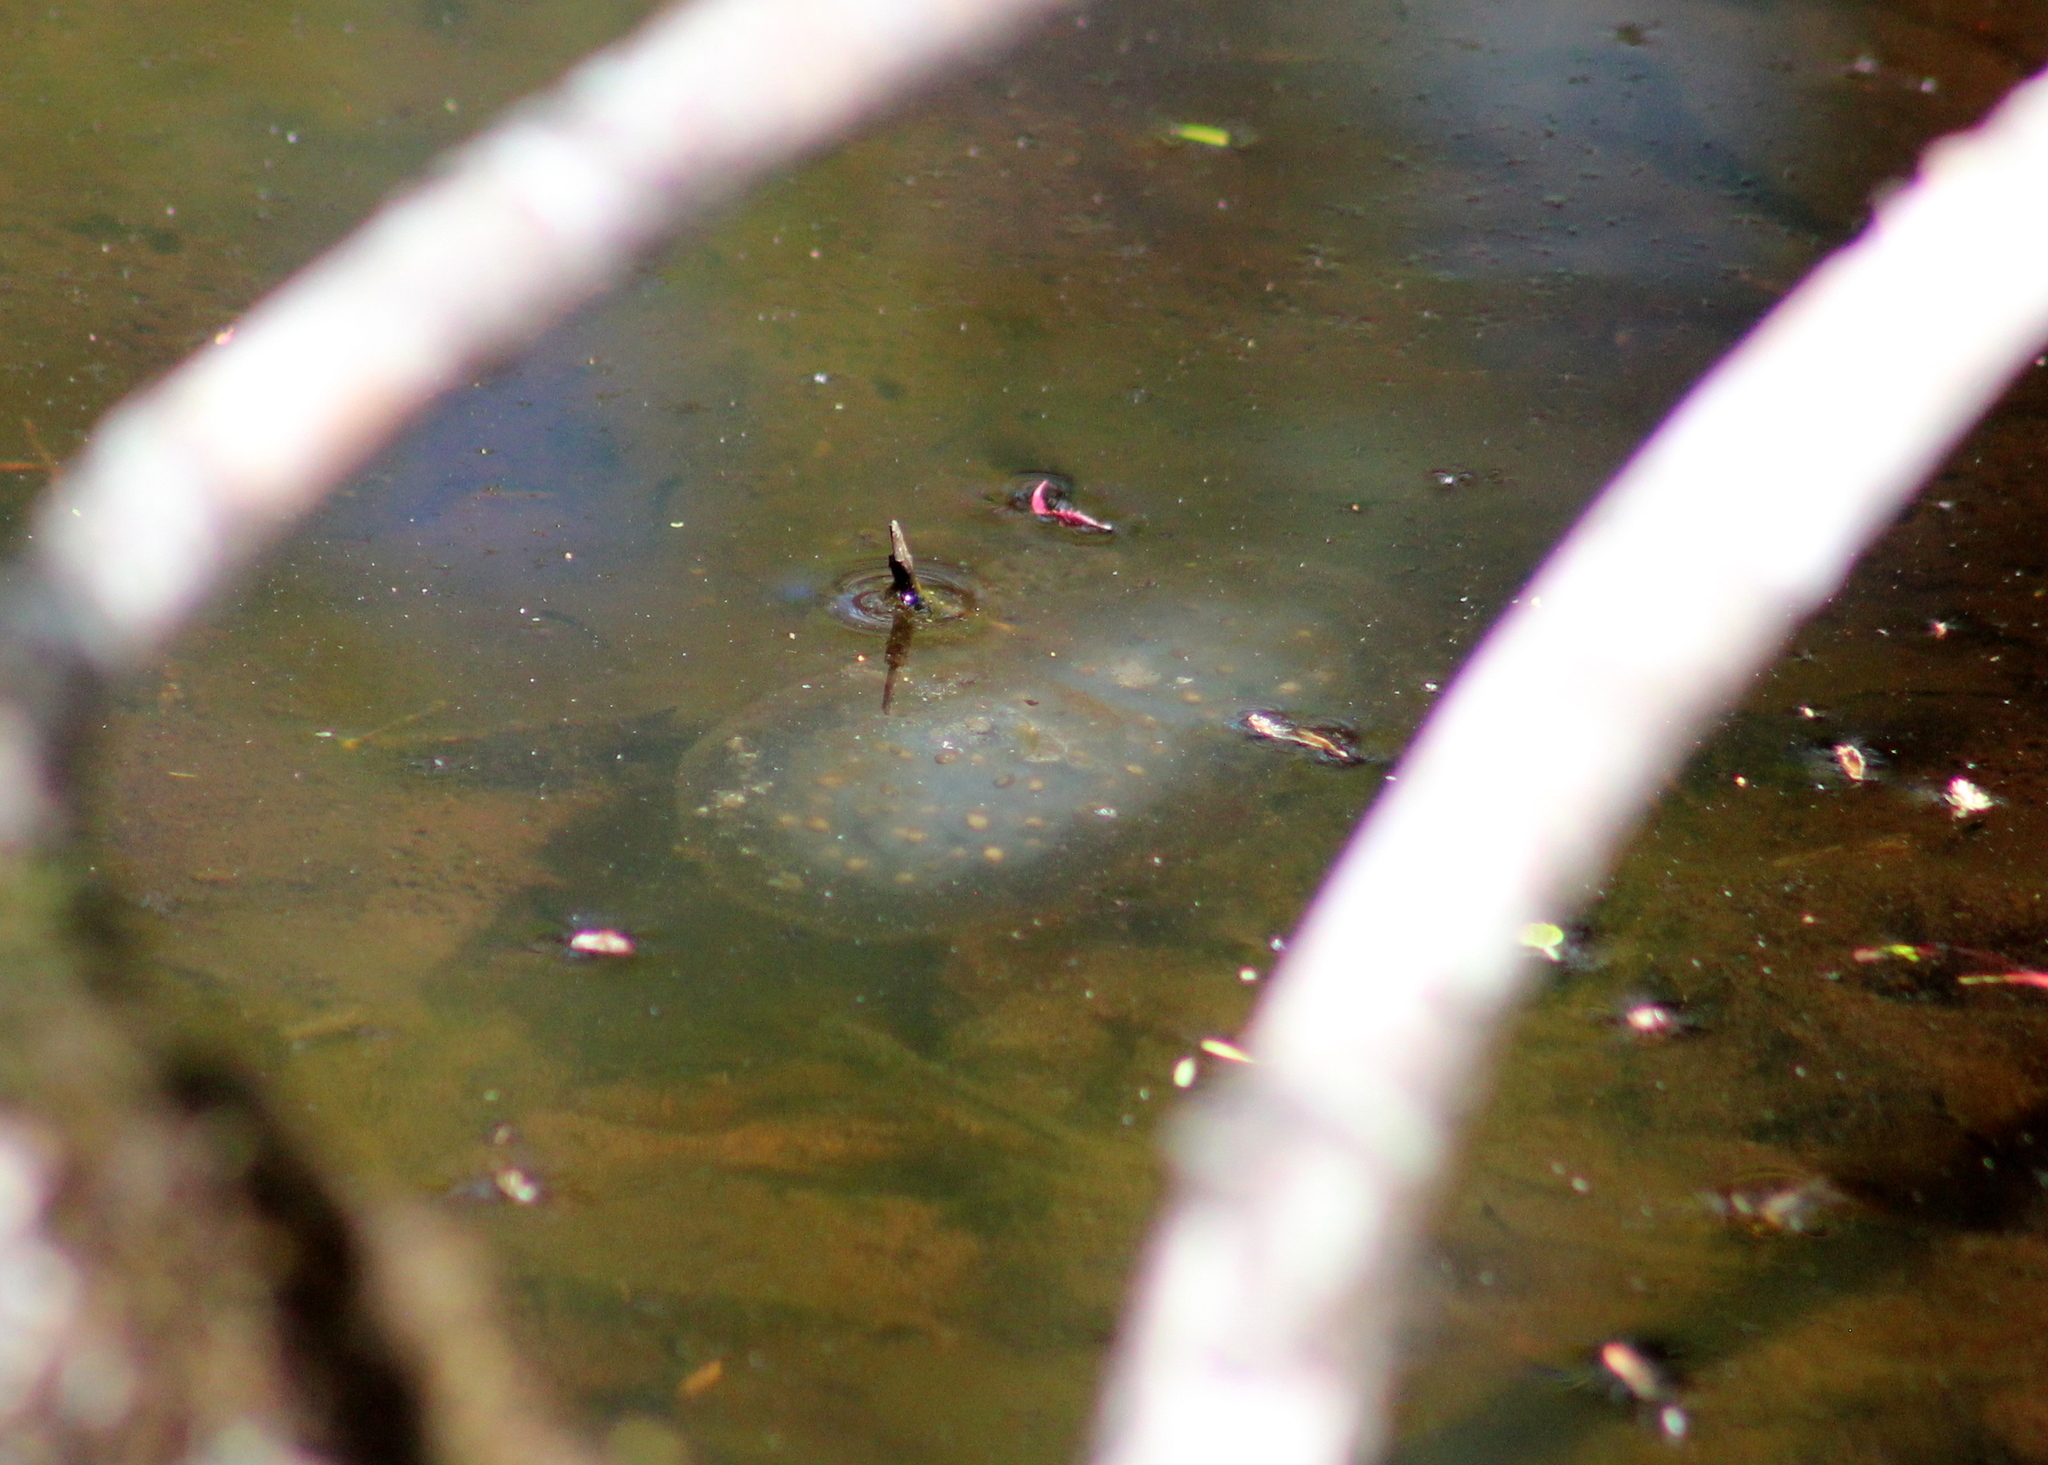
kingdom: Animalia
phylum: Chordata
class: Amphibia
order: Caudata
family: Ambystomatidae
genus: Ambystoma
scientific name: Ambystoma maculatum
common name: Spotted salamander
